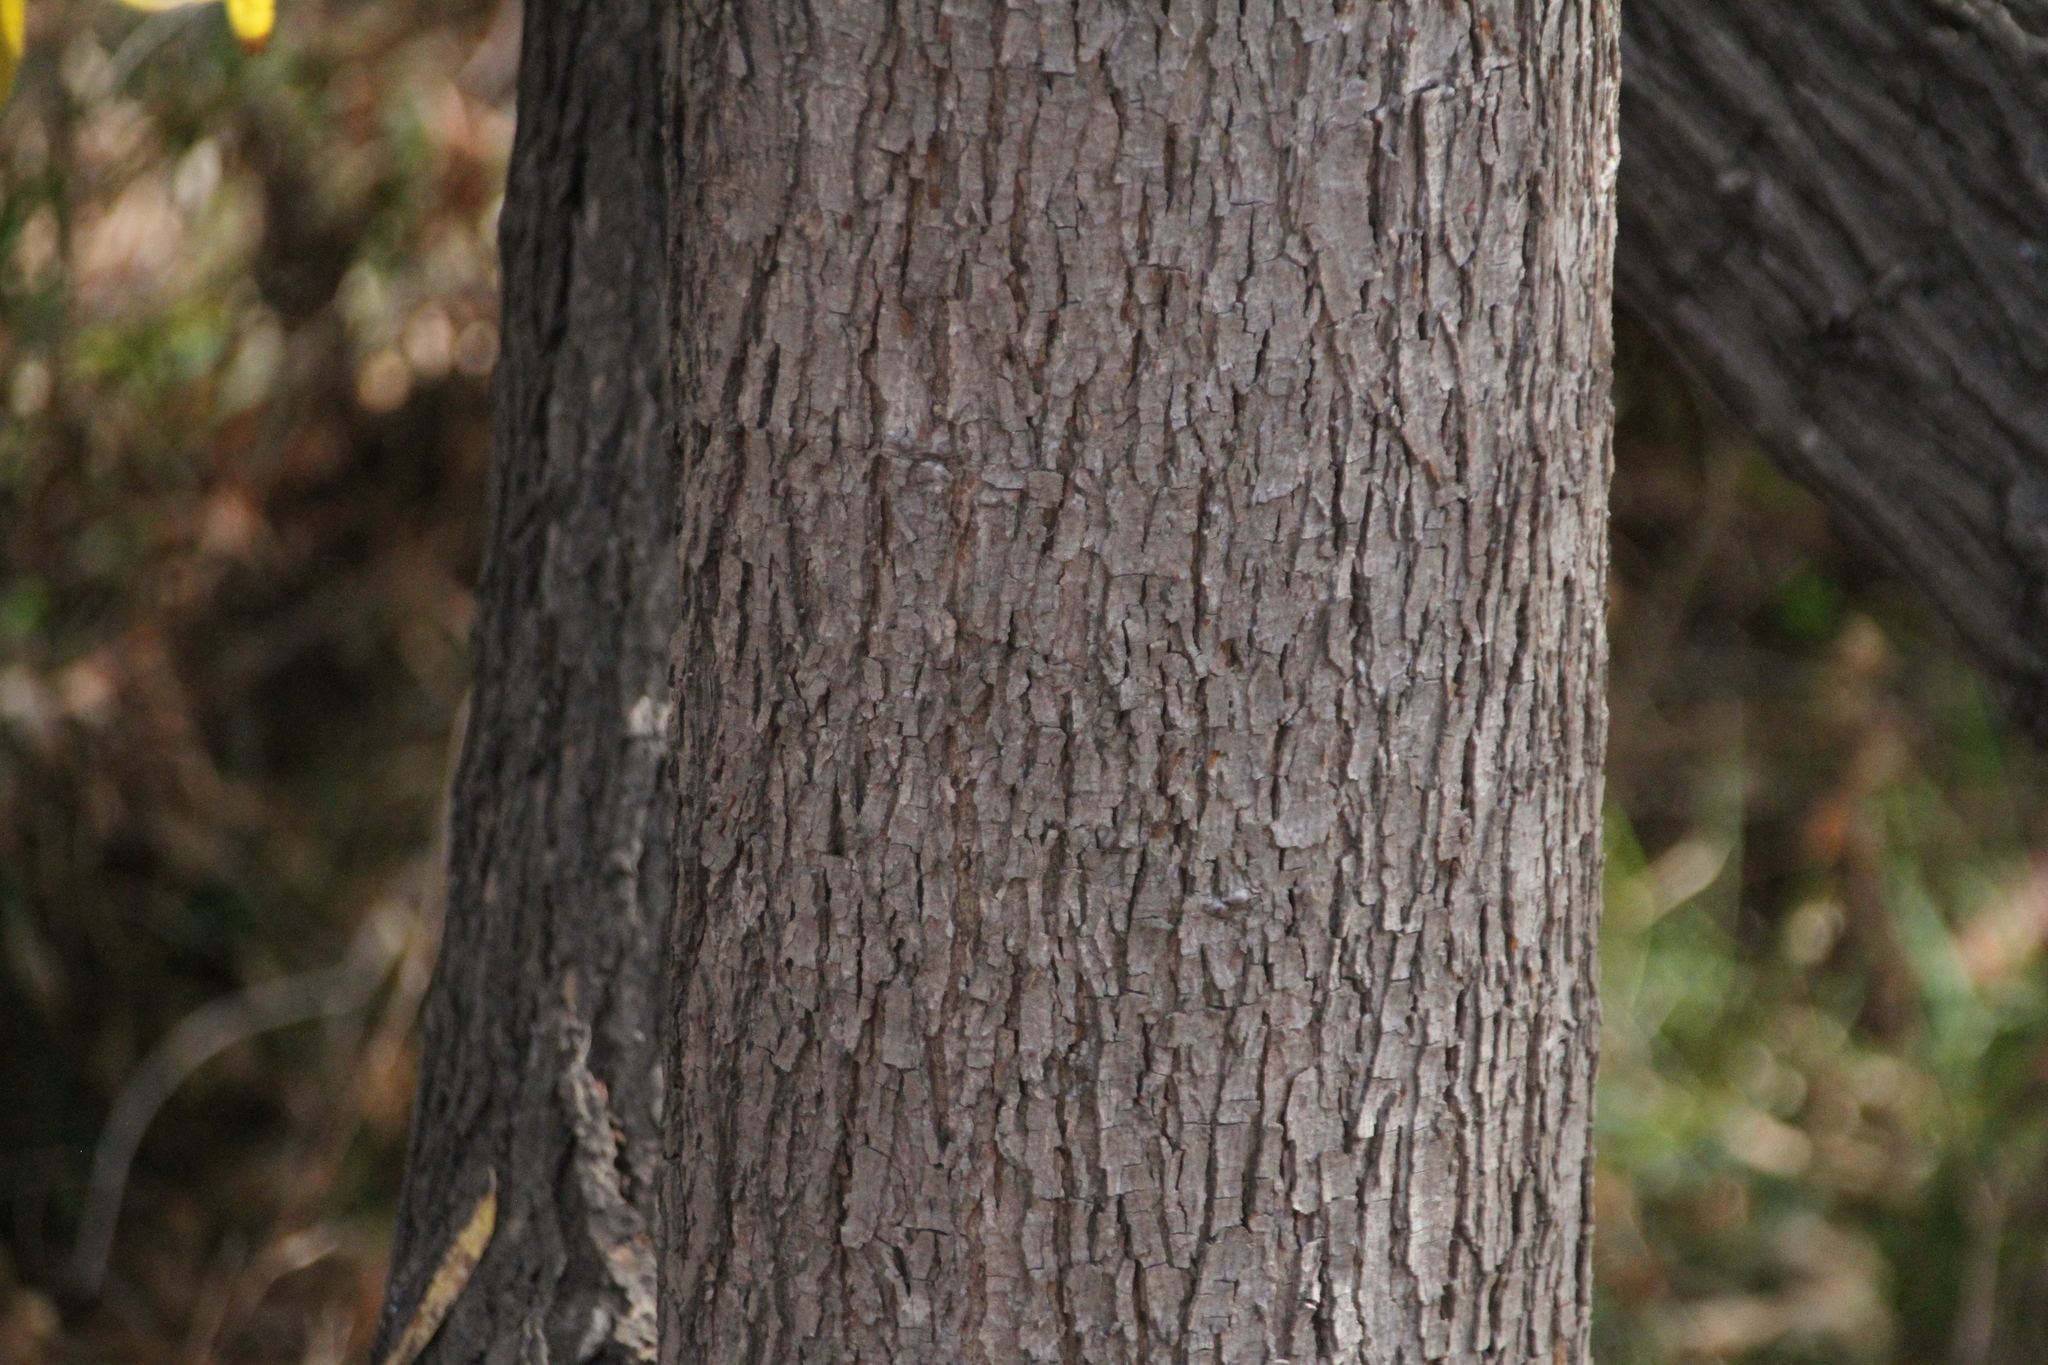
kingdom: Plantae
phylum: Tracheophyta
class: Magnoliopsida
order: Fagales
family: Juglandaceae
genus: Carya
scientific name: Carya illinoinensis
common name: Pecan
